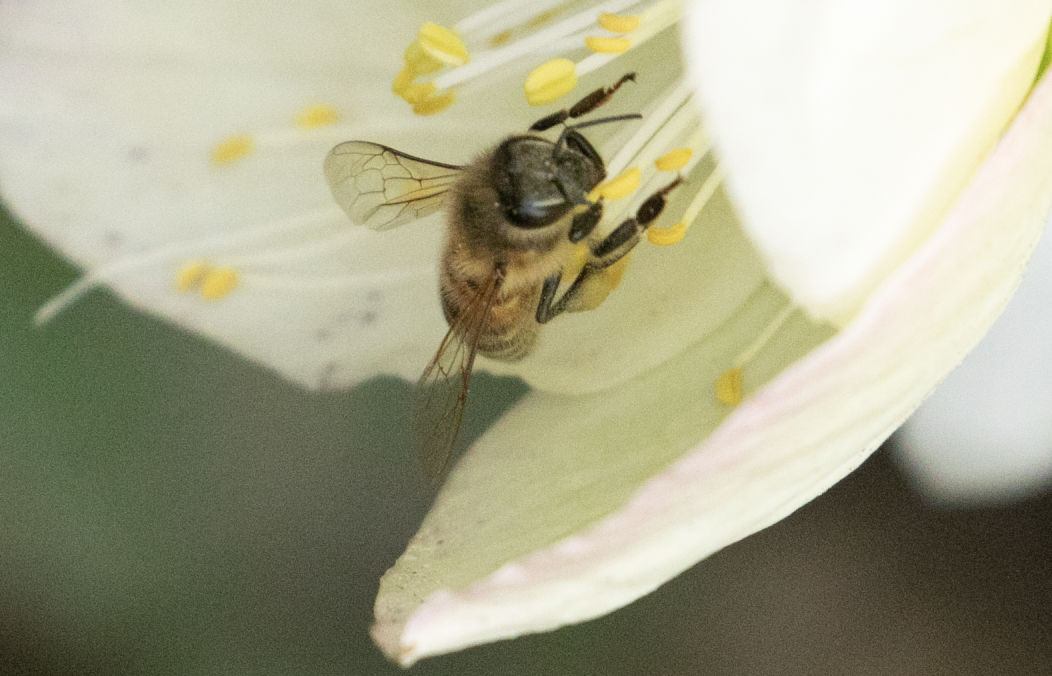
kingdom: Animalia
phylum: Arthropoda
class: Insecta
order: Hymenoptera
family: Apidae
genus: Apis
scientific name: Apis mellifera
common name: Honey bee
